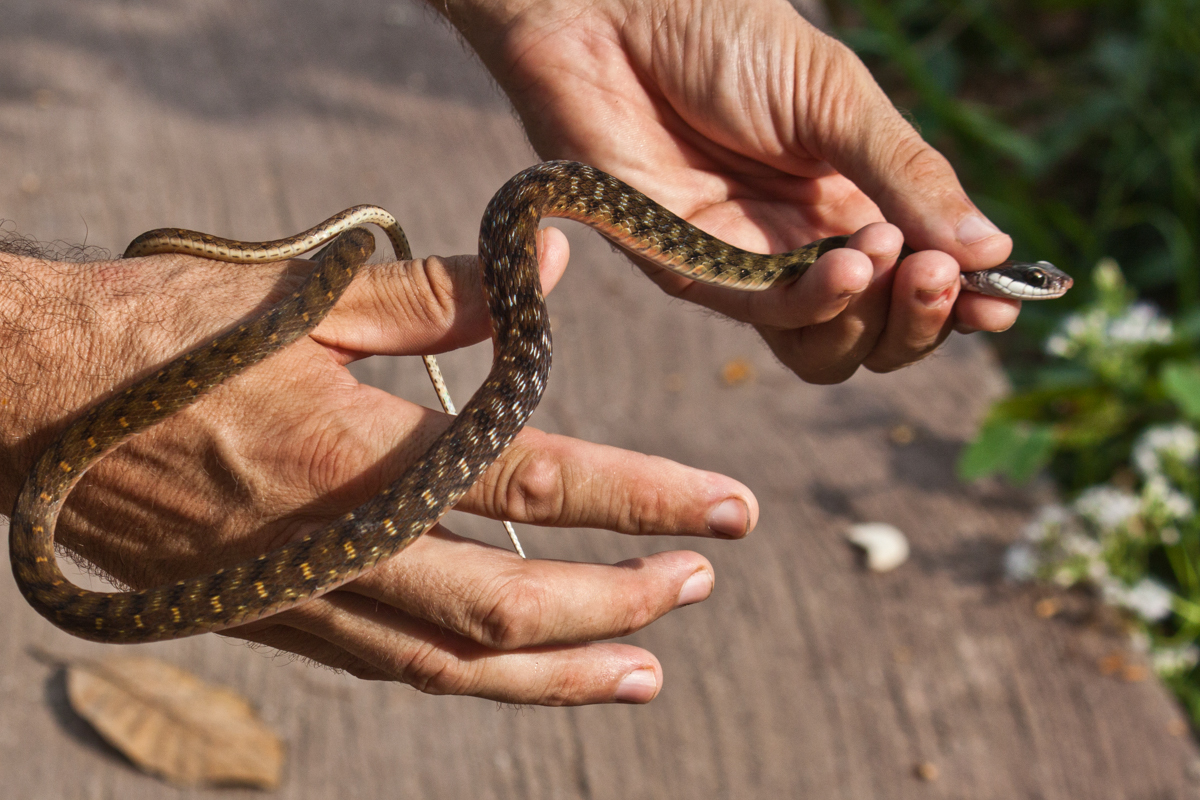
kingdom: Animalia
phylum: Chordata
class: Squamata
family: Colubridae
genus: Rhabdophis
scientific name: Rhabdophis chrysargos
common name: Specklebelly keelback
